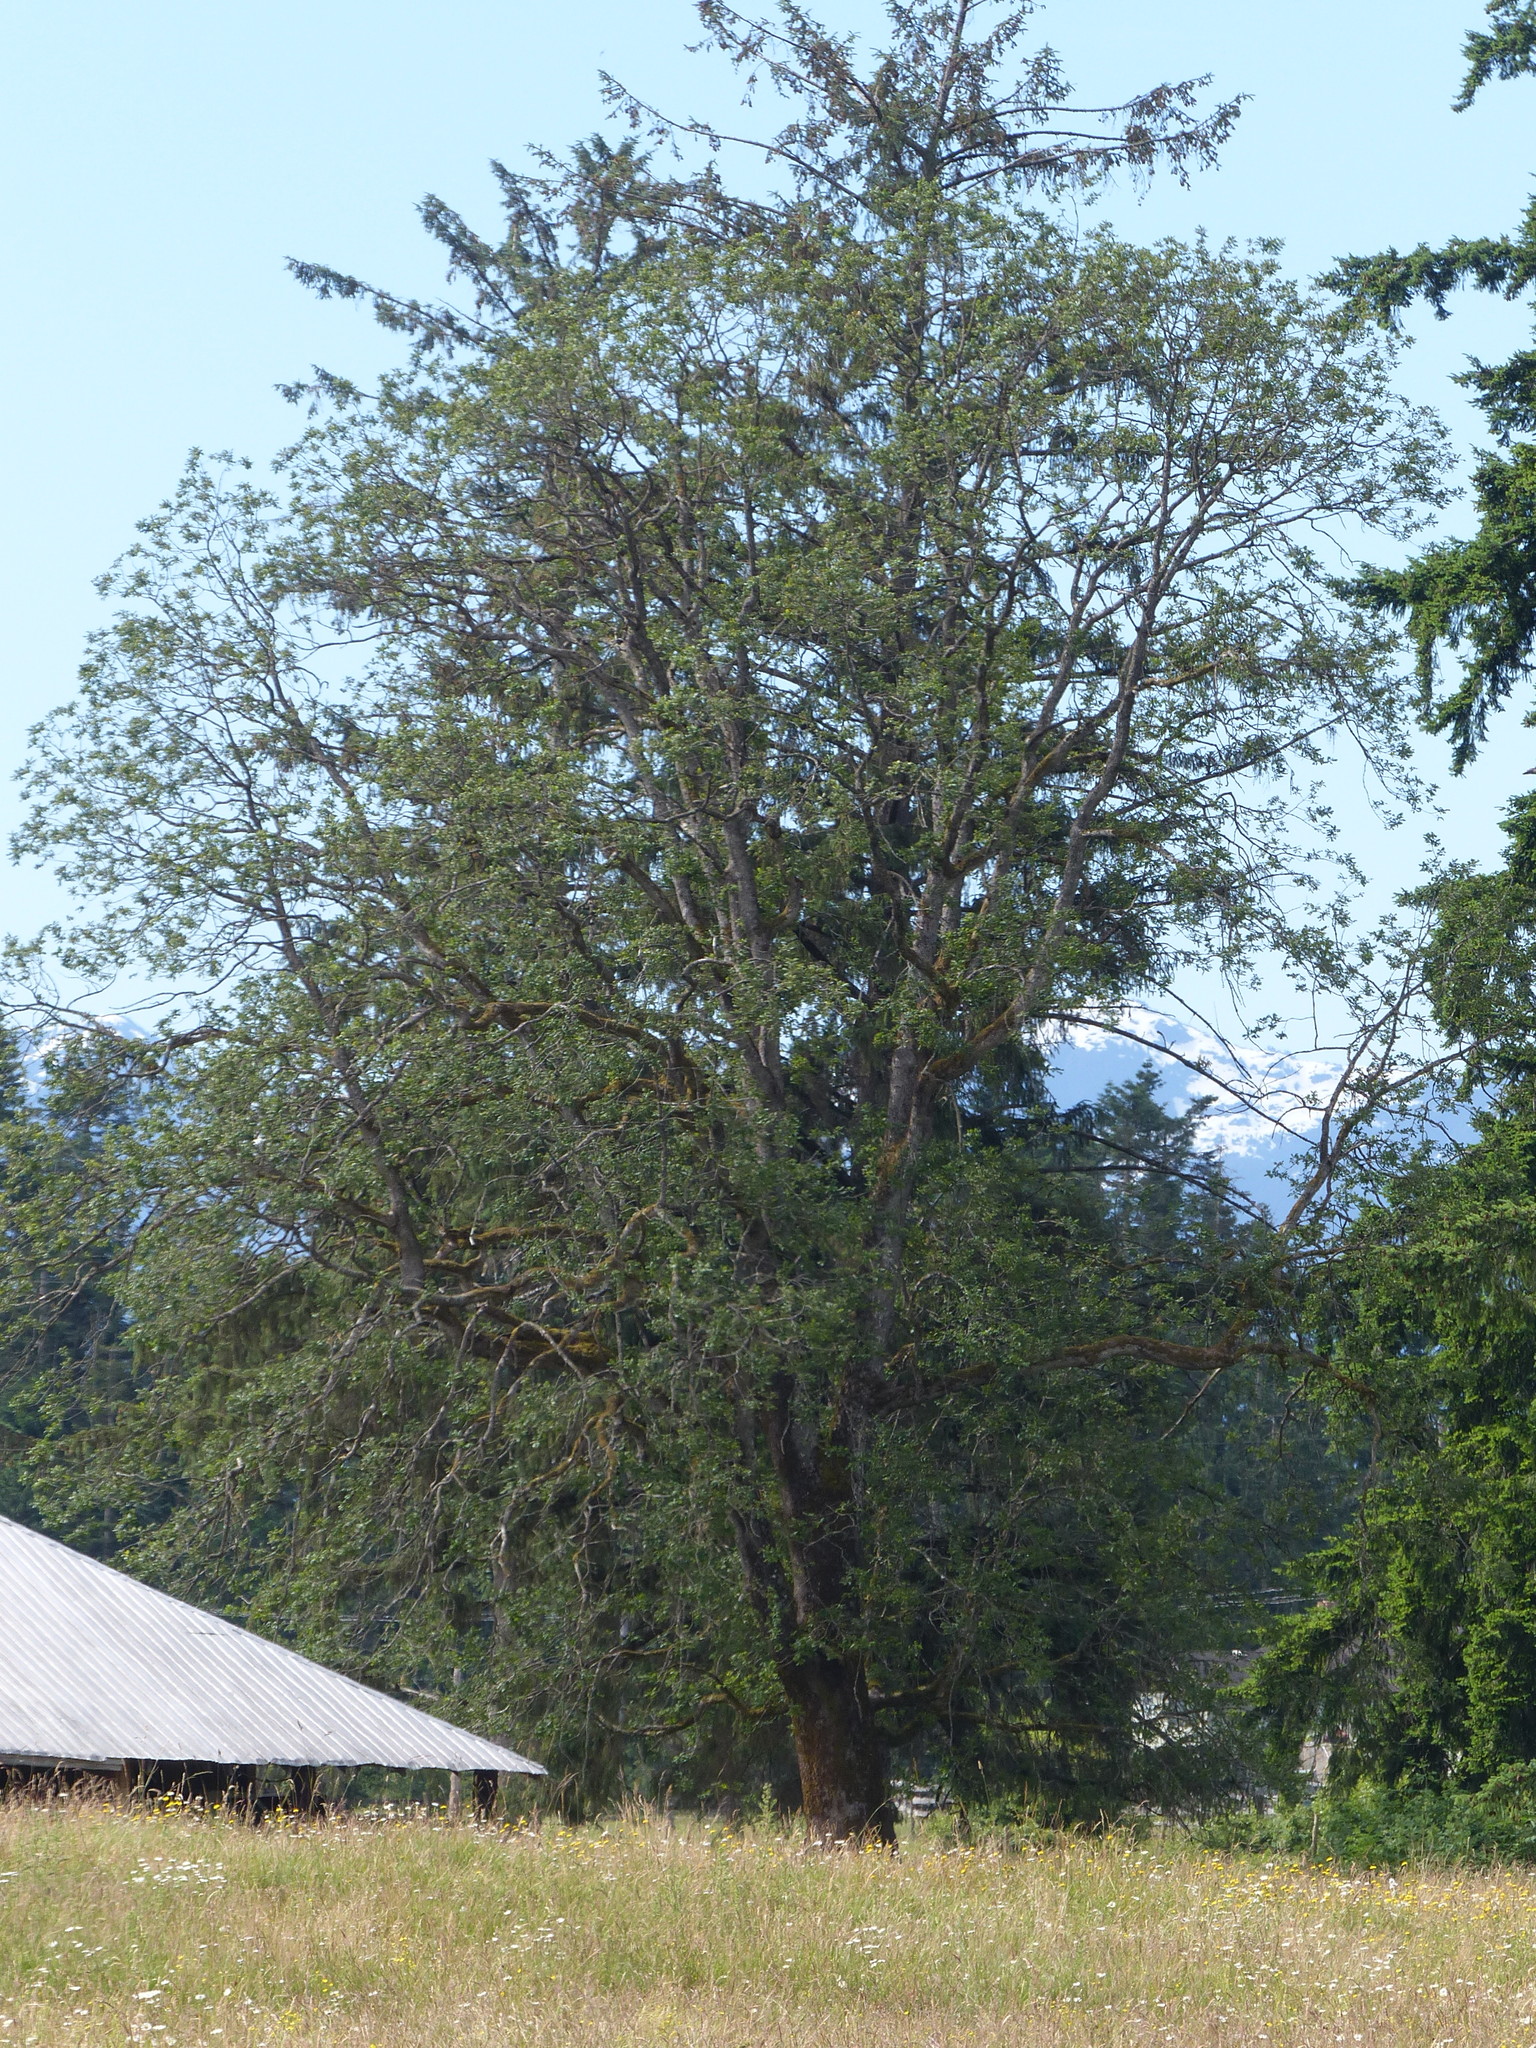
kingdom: Plantae
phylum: Tracheophyta
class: Magnoliopsida
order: Fagales
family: Fagaceae
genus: Quercus
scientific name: Quercus garryana
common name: Garry oak
